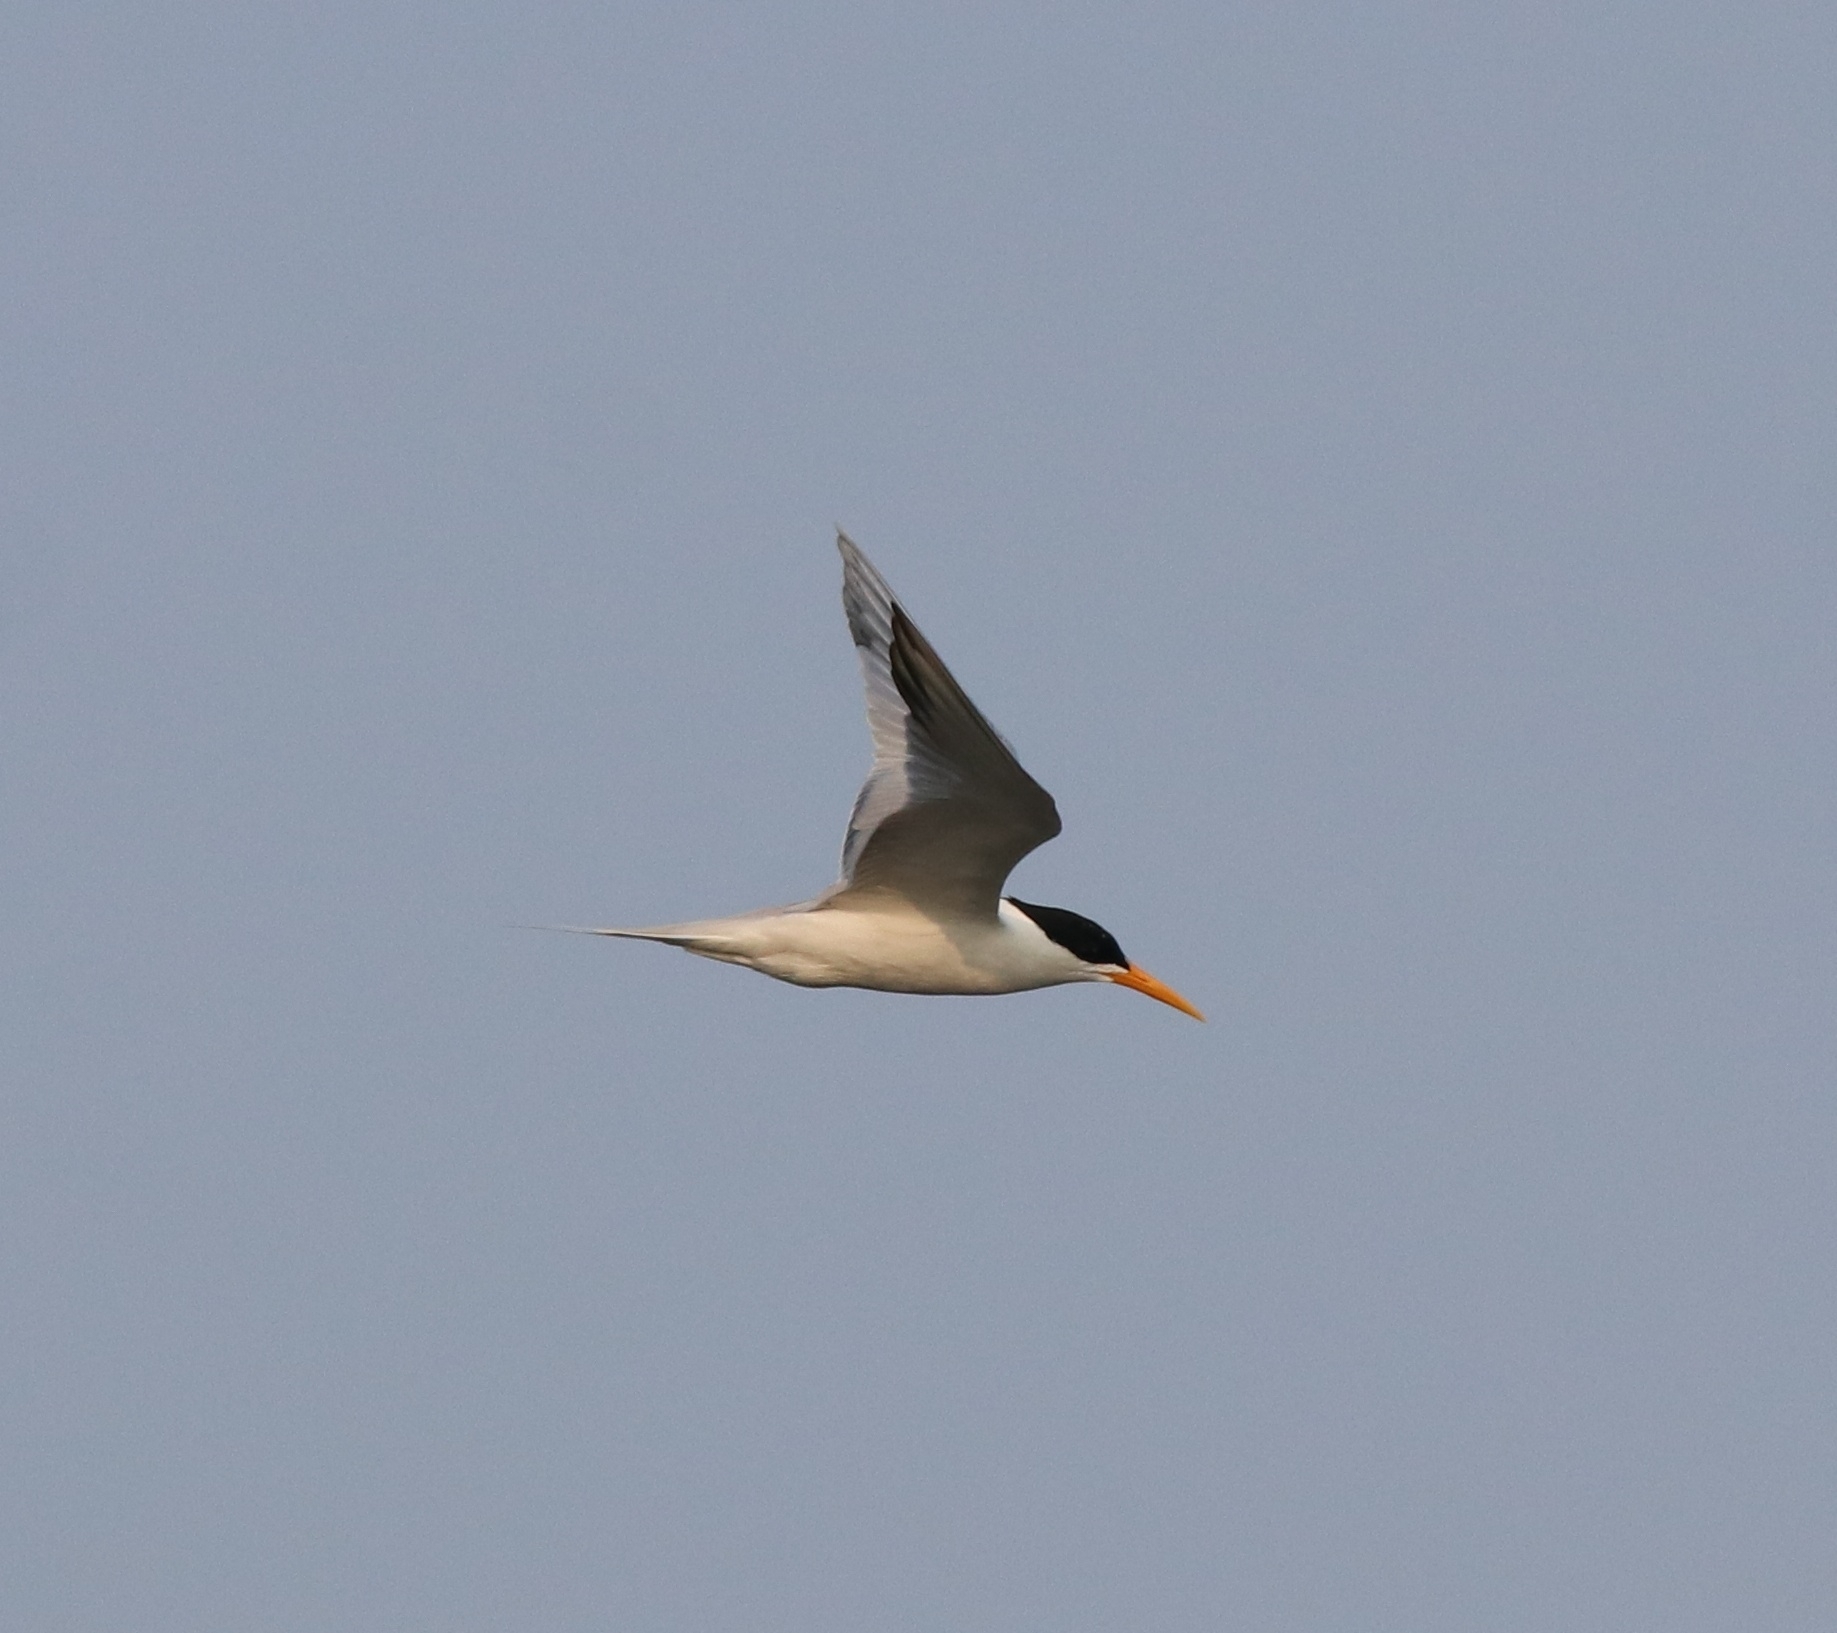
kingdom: Animalia
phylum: Chordata
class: Aves
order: Charadriiformes
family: Laridae
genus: Thalasseus
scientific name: Thalasseus bengalensis
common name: Lesser crested tern
